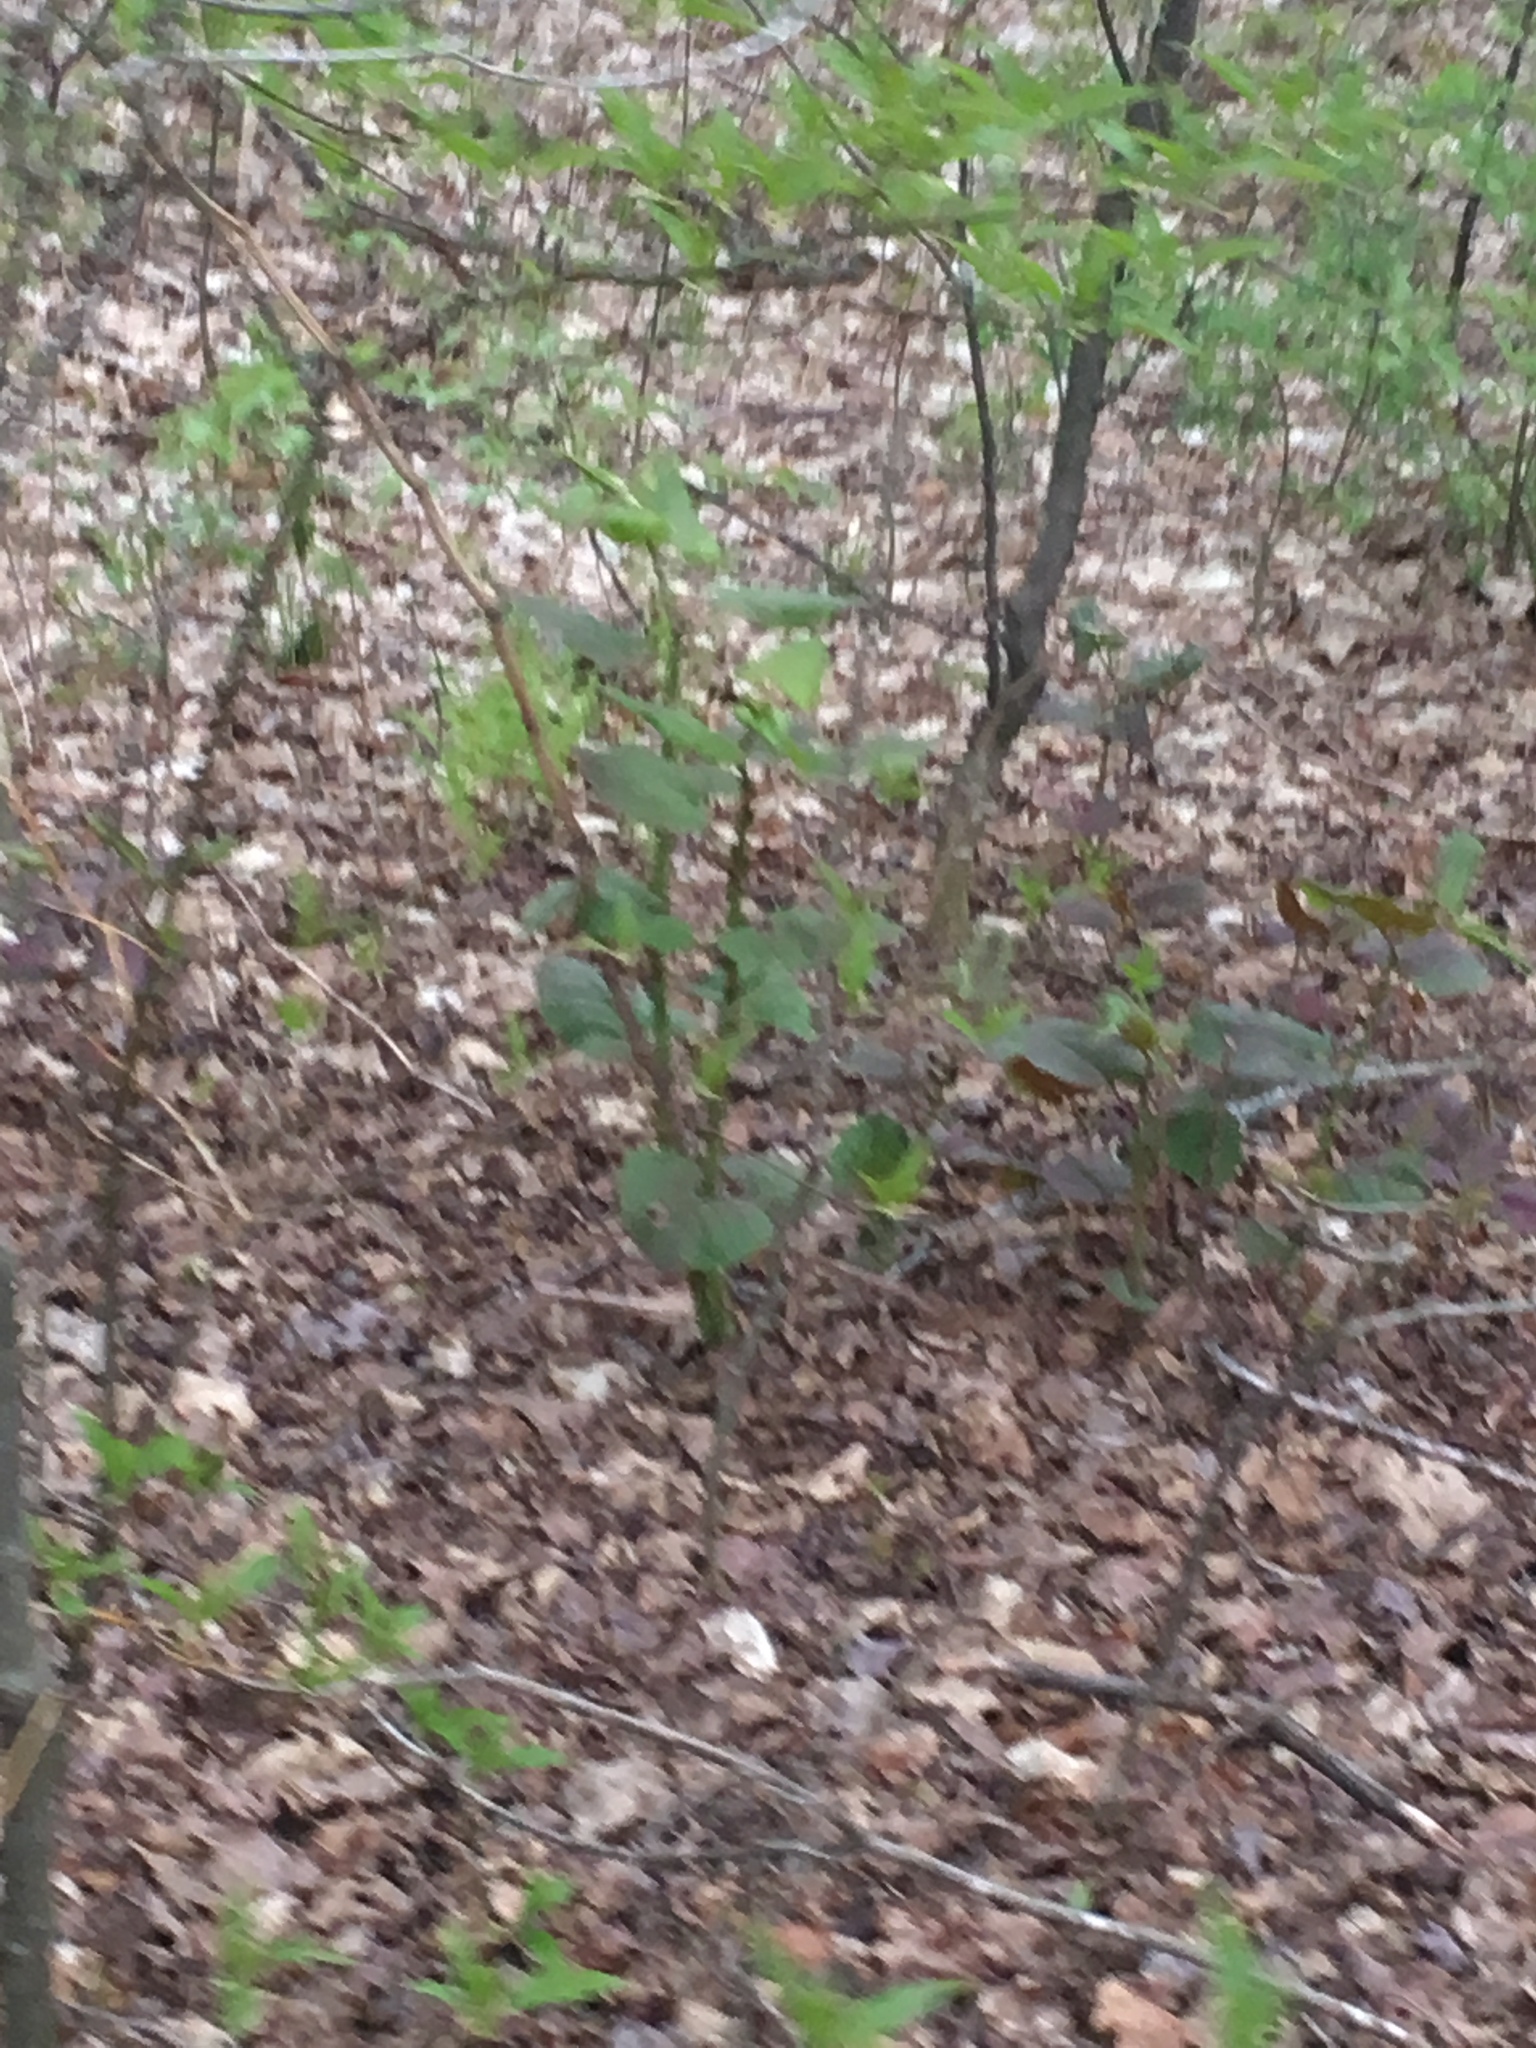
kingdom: Plantae
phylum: Tracheophyta
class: Magnoliopsida
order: Caryophyllales
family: Polygonaceae
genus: Reynoutria
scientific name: Reynoutria japonica
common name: Japanese knotweed
